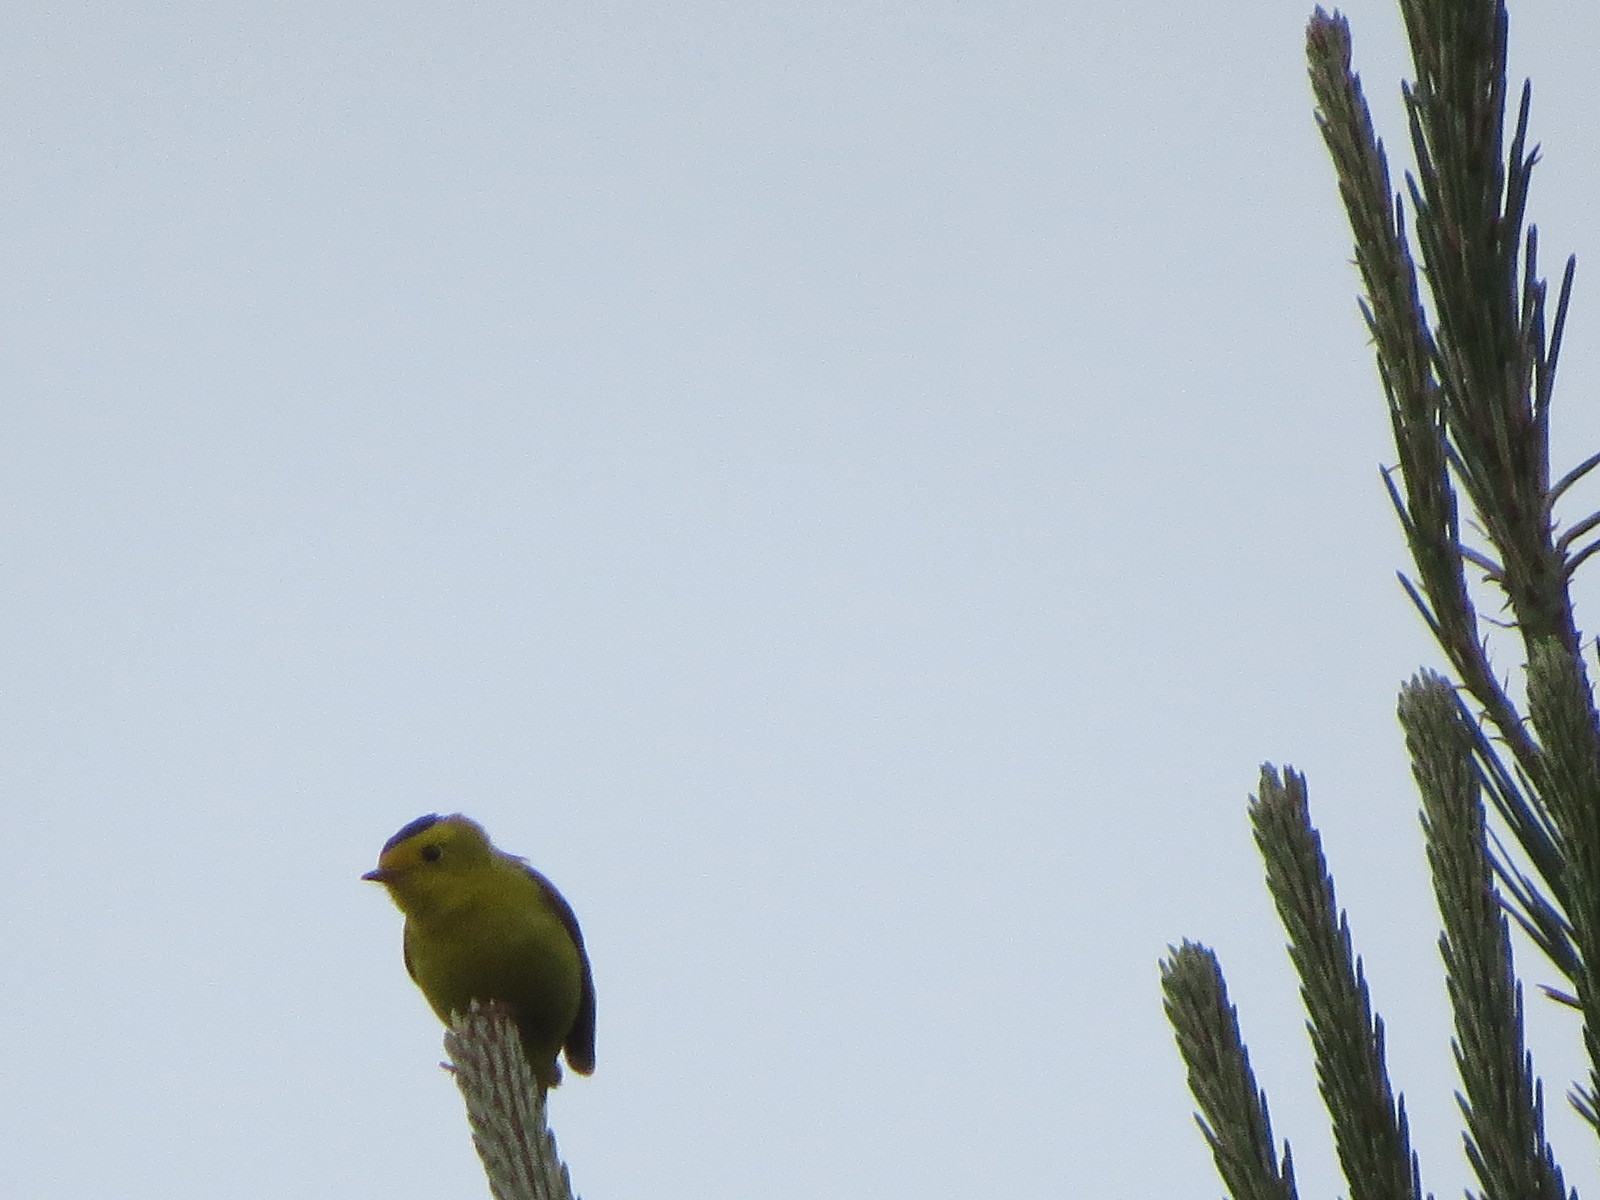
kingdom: Animalia
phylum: Chordata
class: Aves
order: Passeriformes
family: Parulidae
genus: Cardellina
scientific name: Cardellina pusilla
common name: Wilson's warbler
